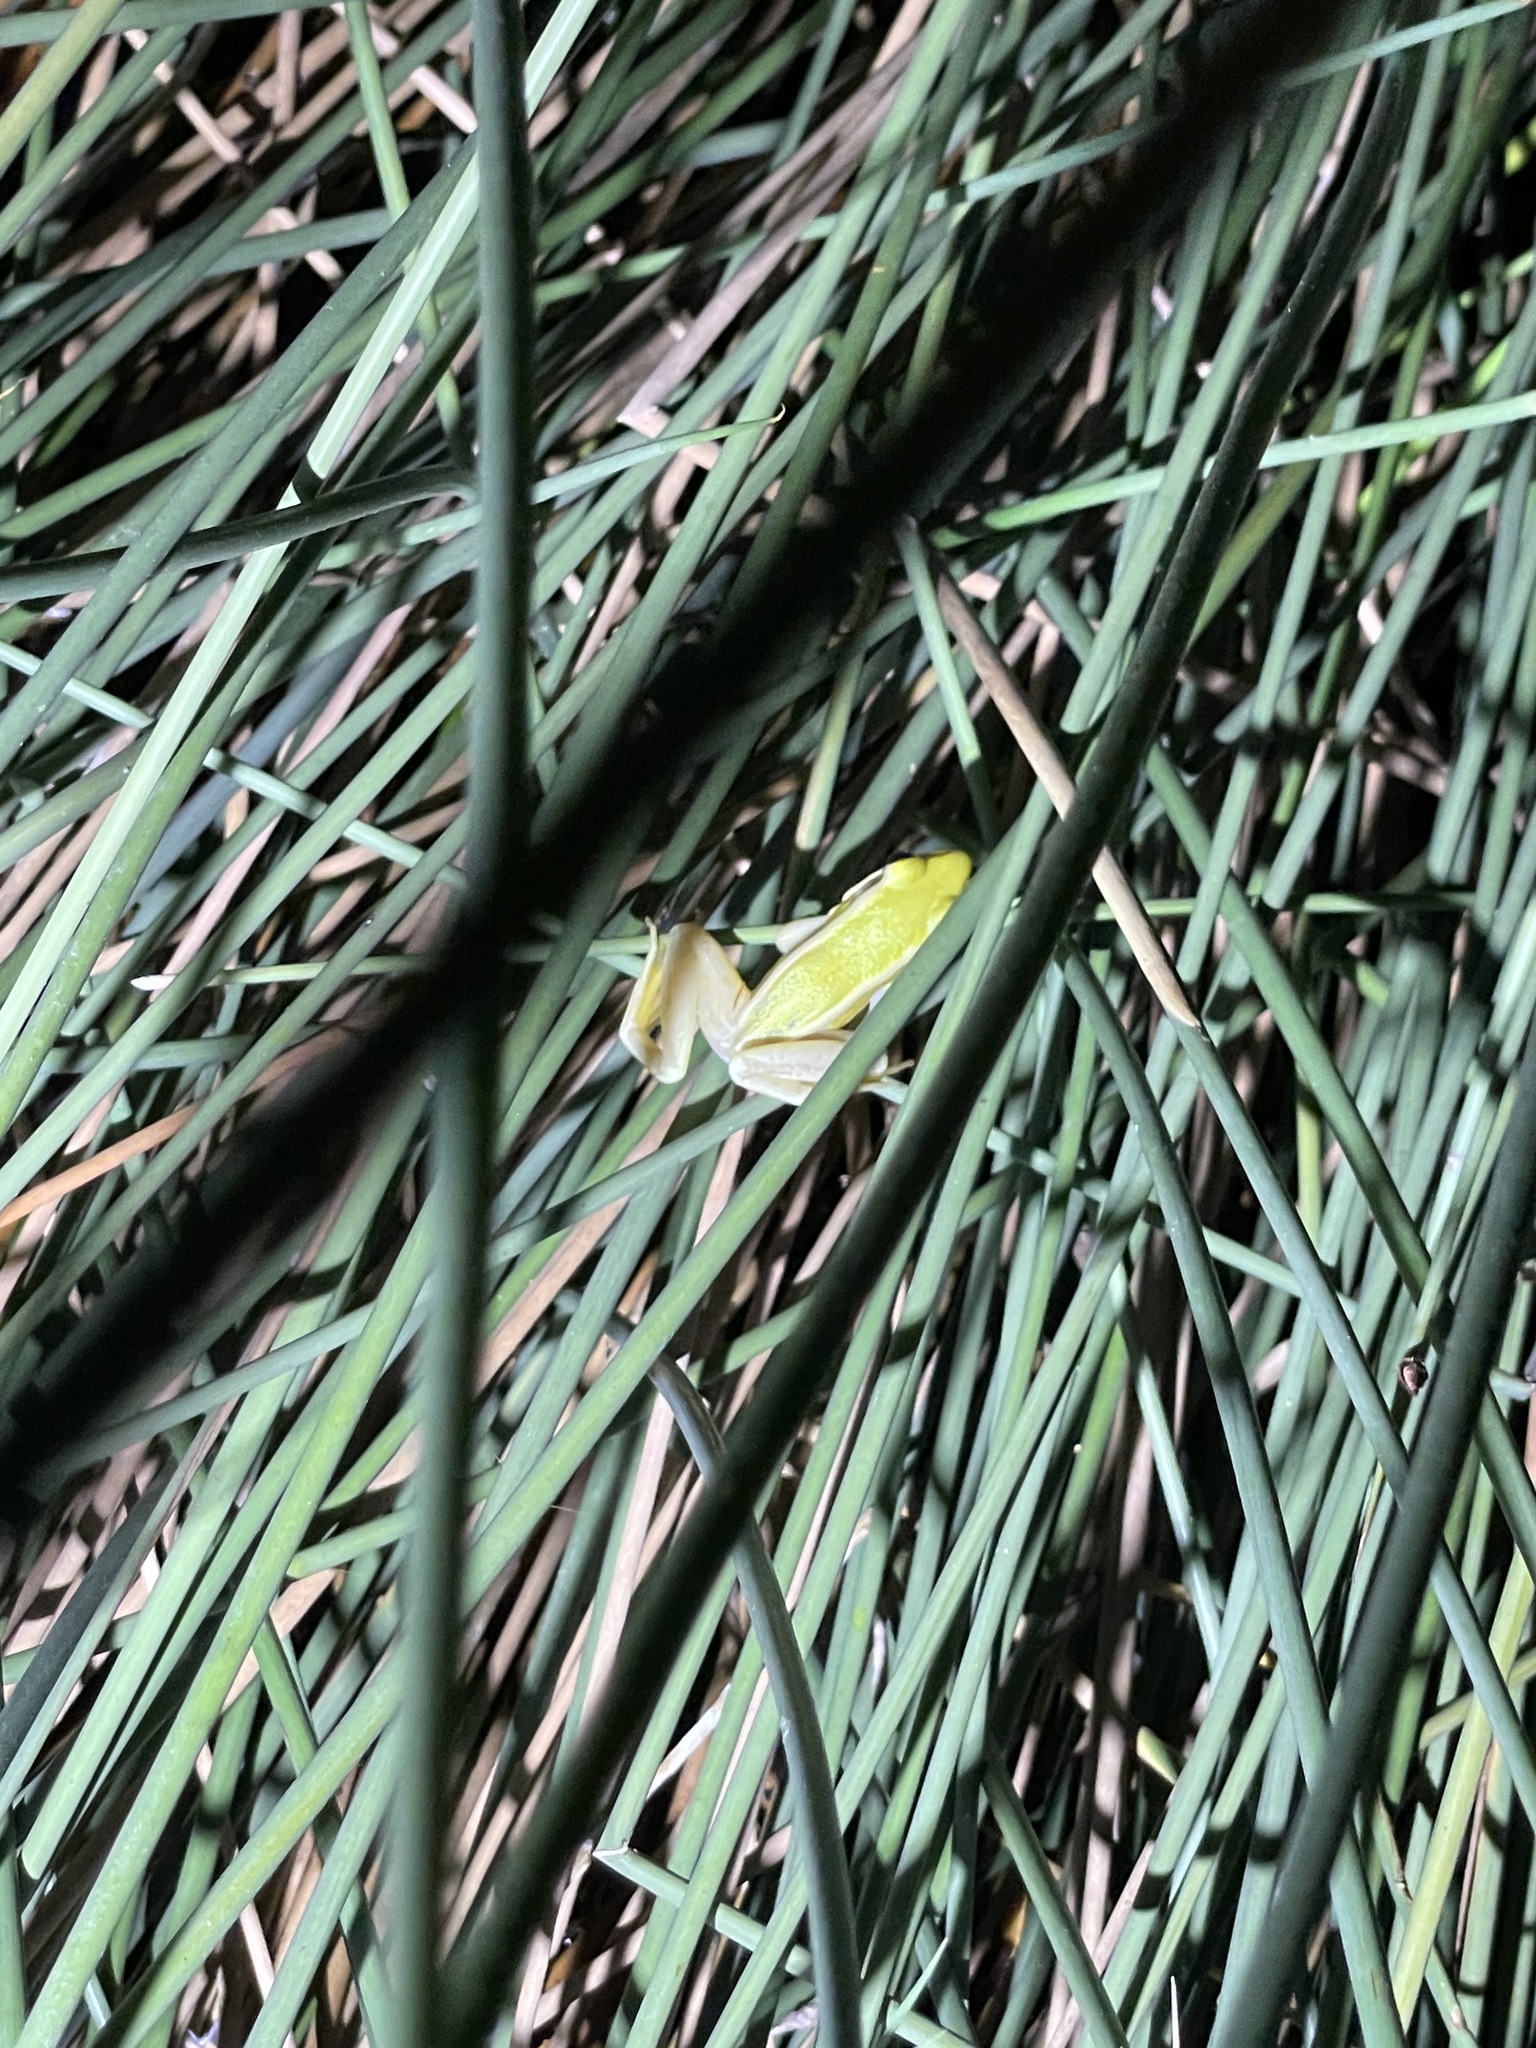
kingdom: Animalia
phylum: Chordata
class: Amphibia
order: Anura
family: Ranidae
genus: Hylarana
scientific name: Hylarana erythraea
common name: Common green frog/green paddy frog/leaf frog
